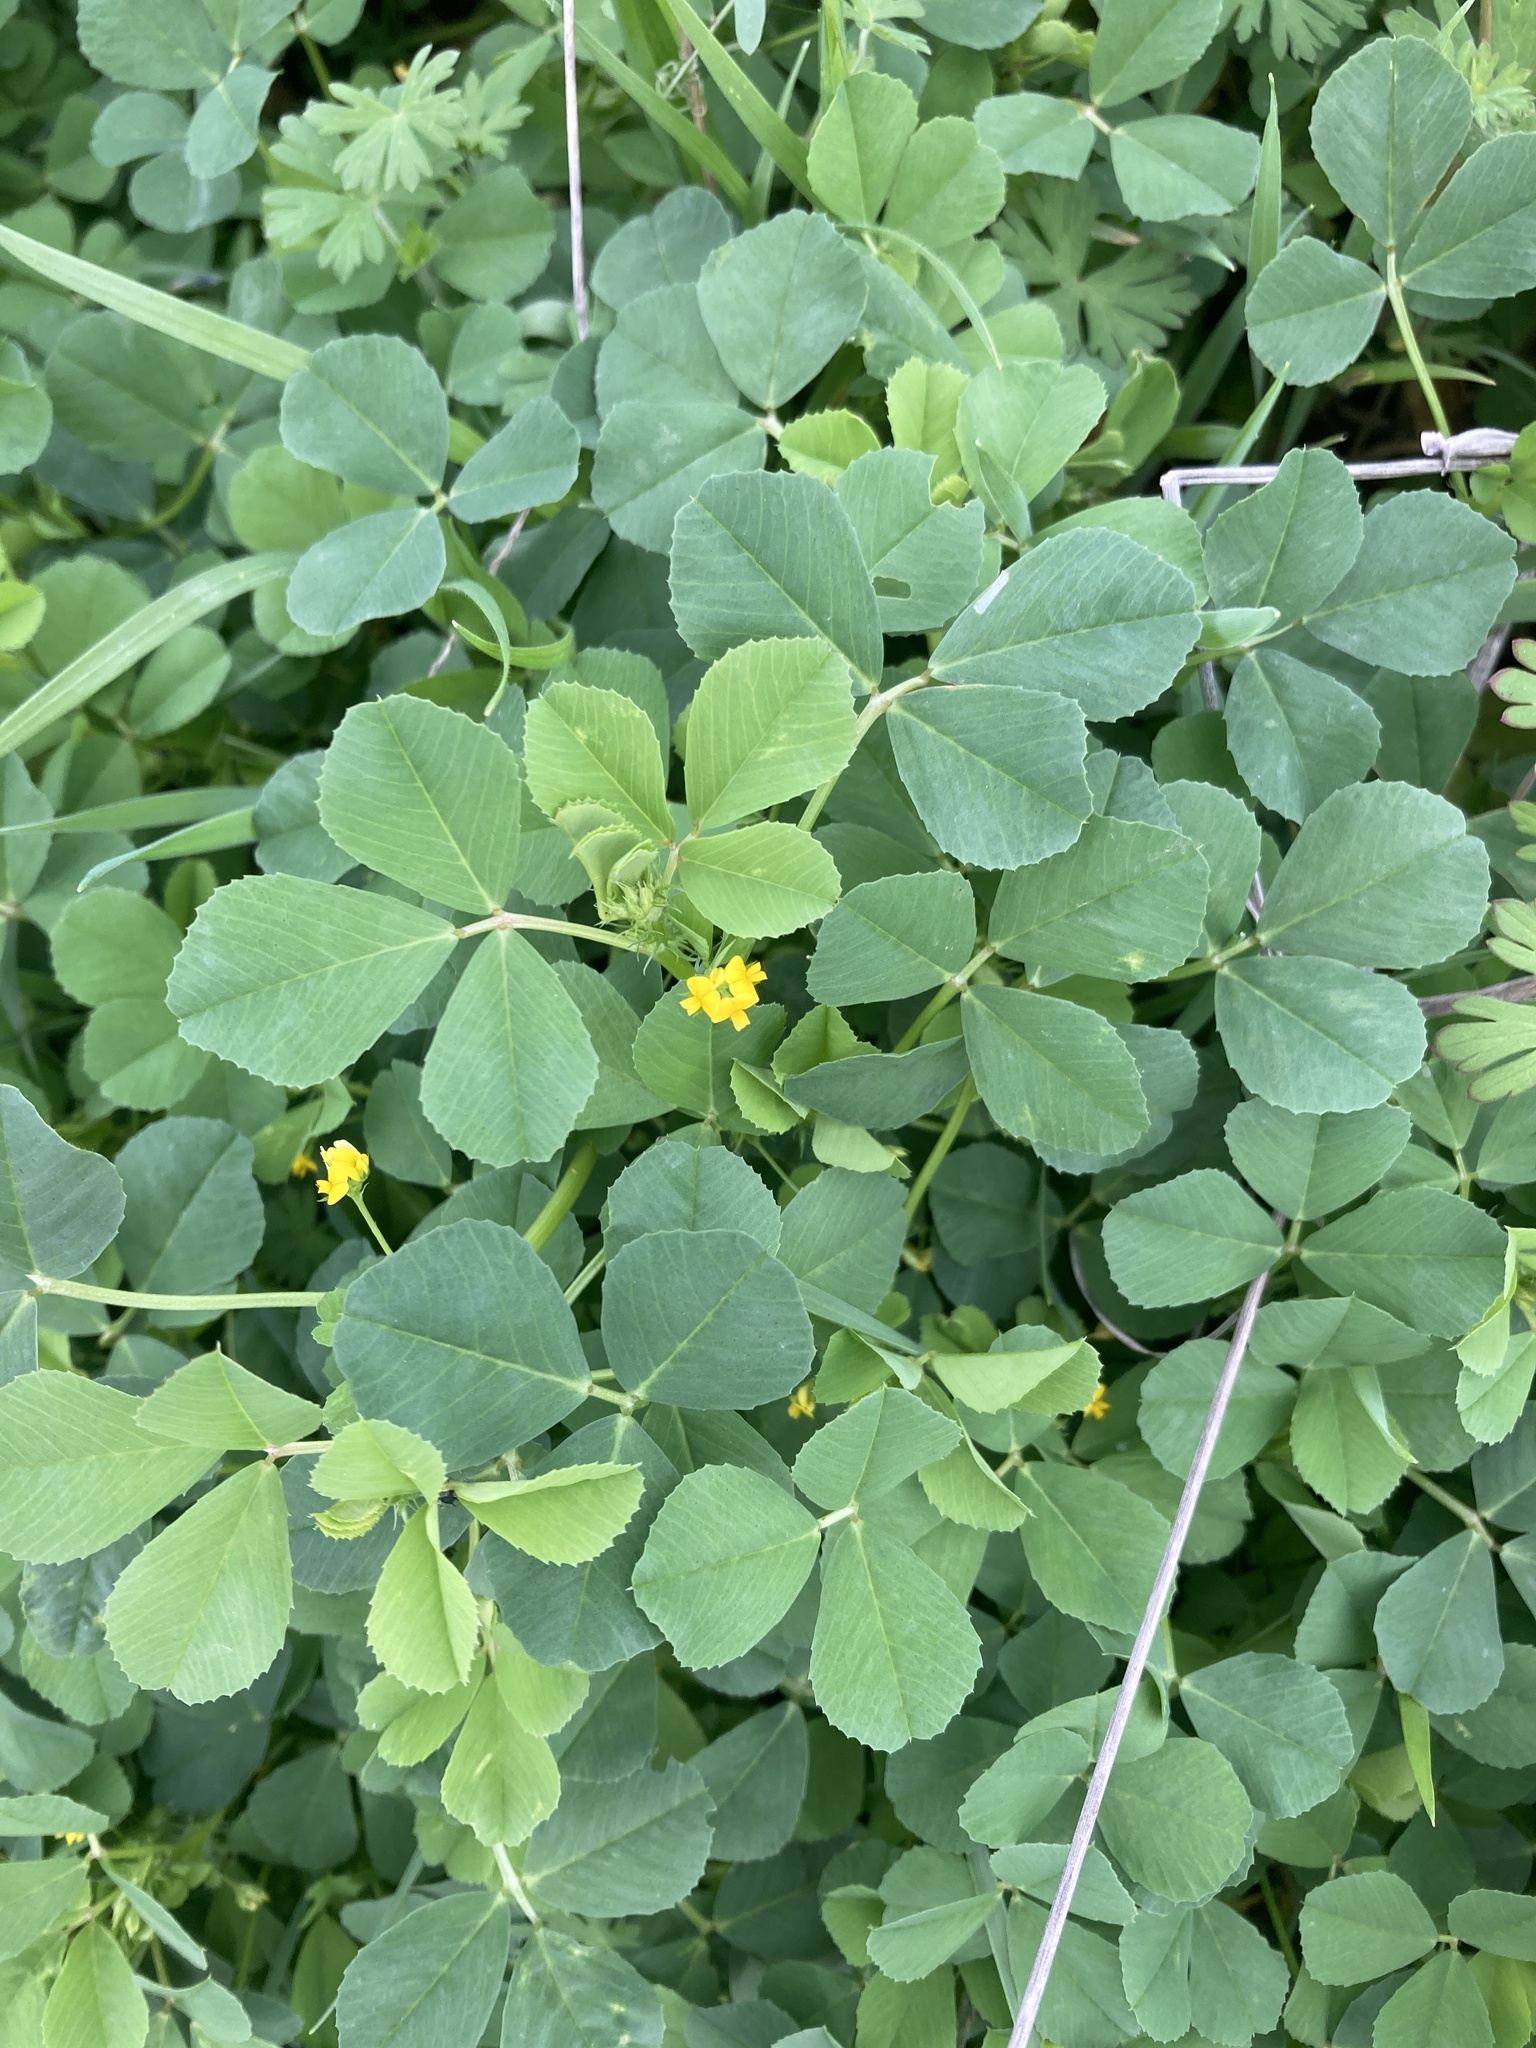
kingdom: Plantae
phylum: Tracheophyta
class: Magnoliopsida
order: Fabales
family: Fabaceae
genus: Medicago
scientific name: Medicago polymorpha
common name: Burclover
